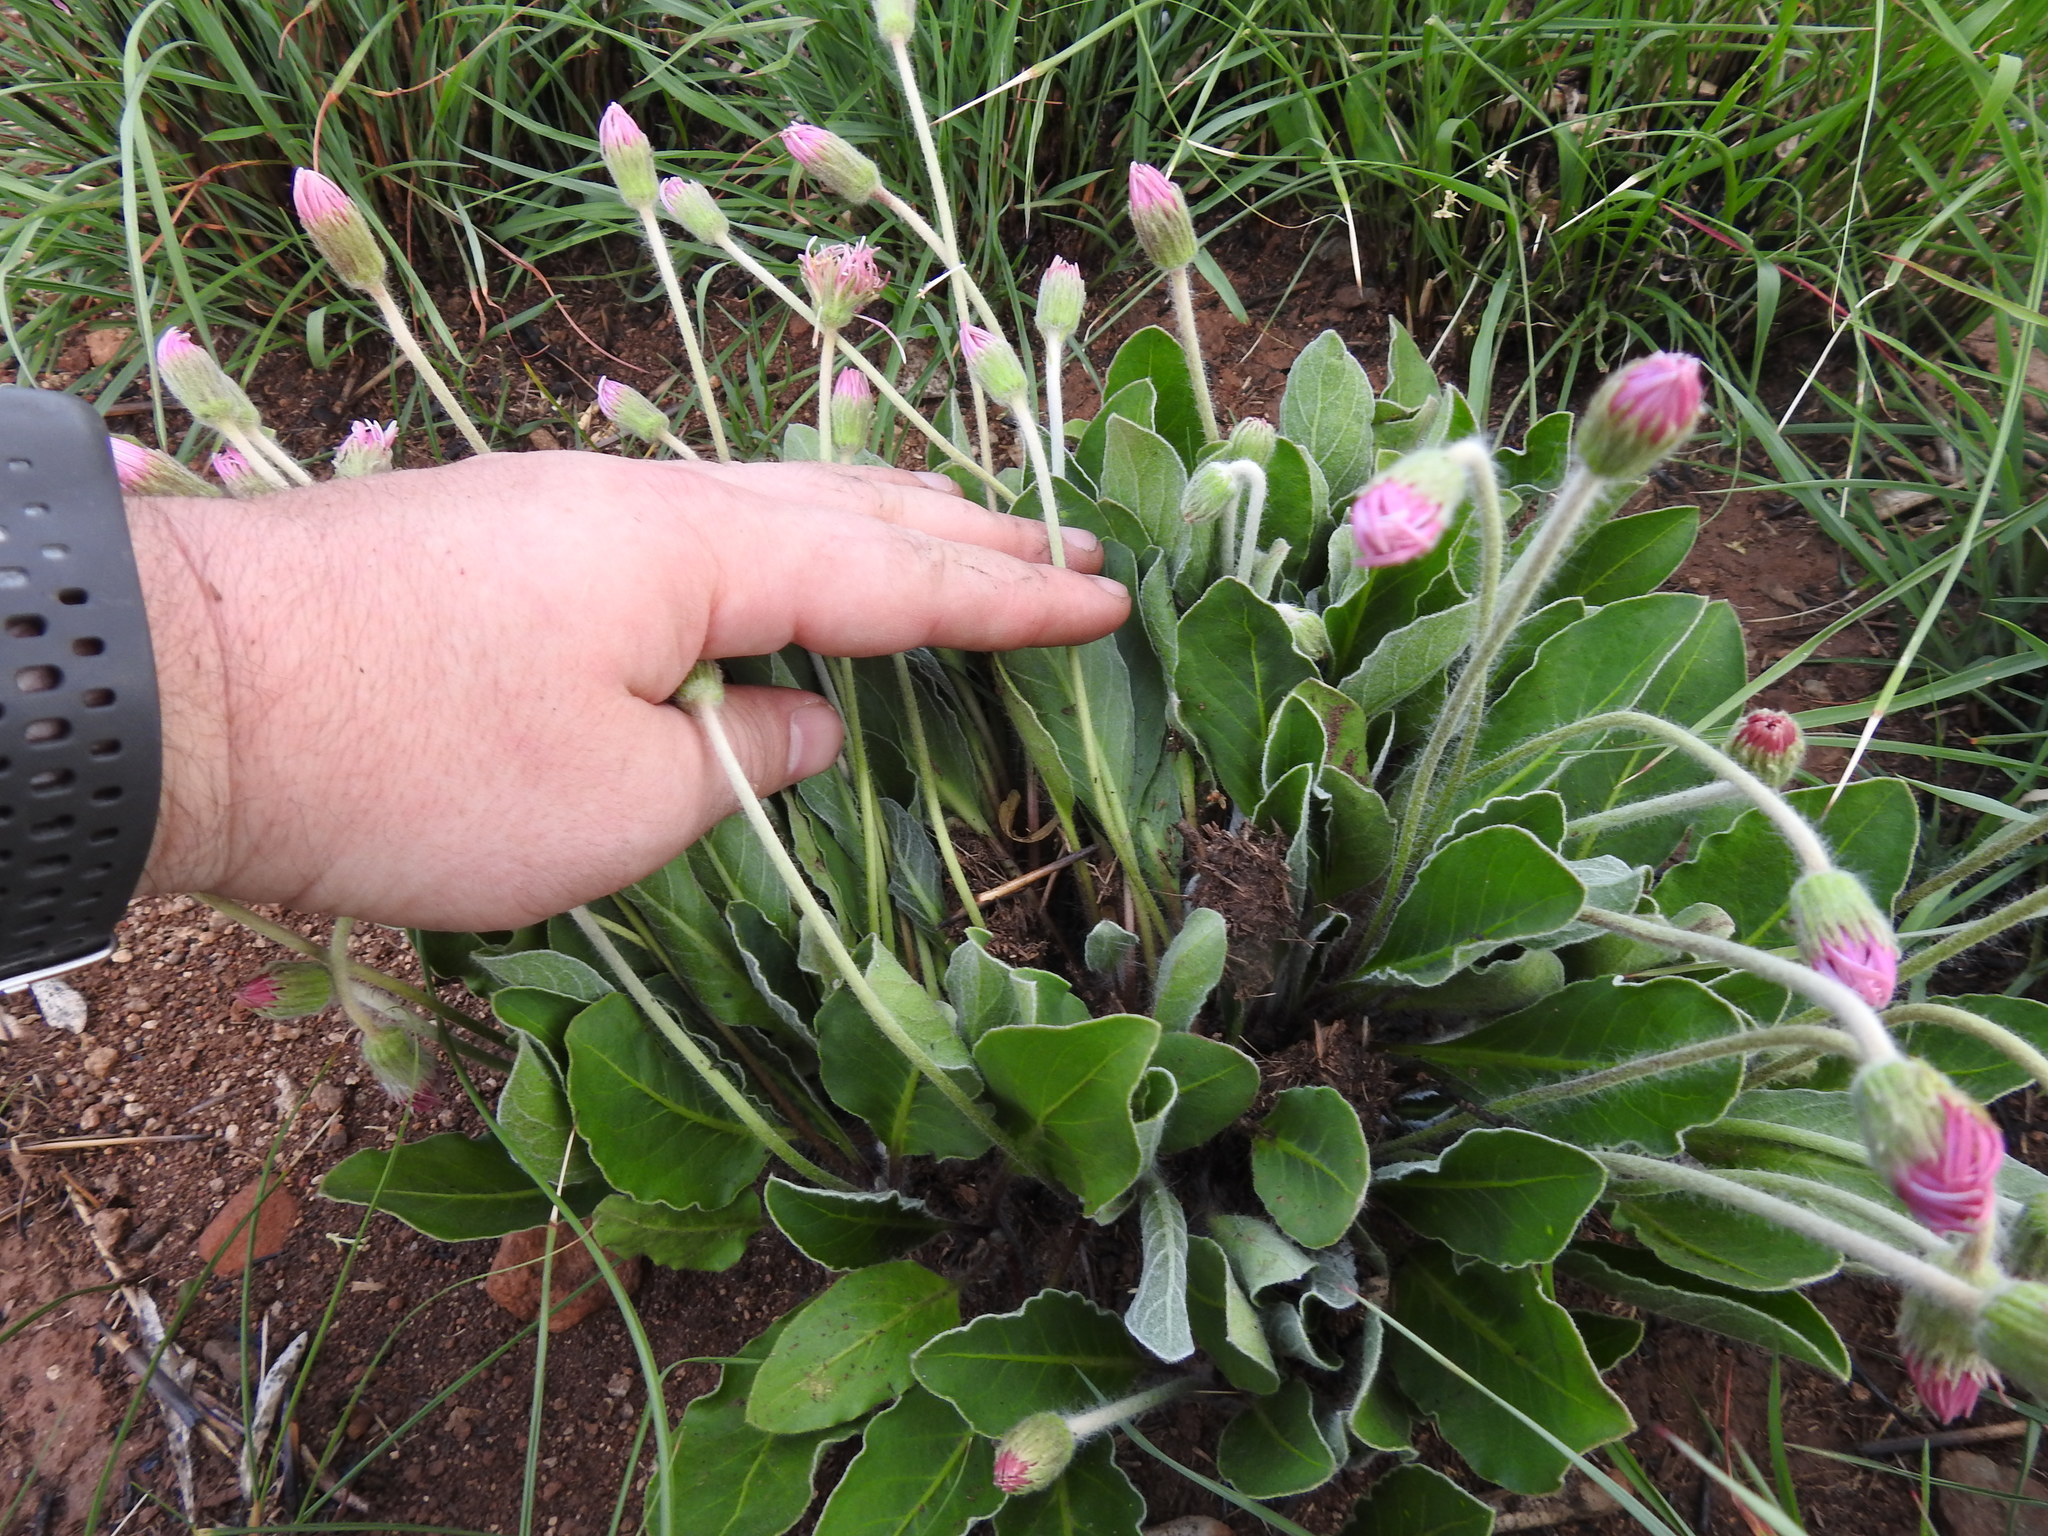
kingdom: Plantae
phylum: Tracheophyta
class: Magnoliopsida
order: Asterales
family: Asteraceae
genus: Gerbera
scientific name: Gerbera ambigua
